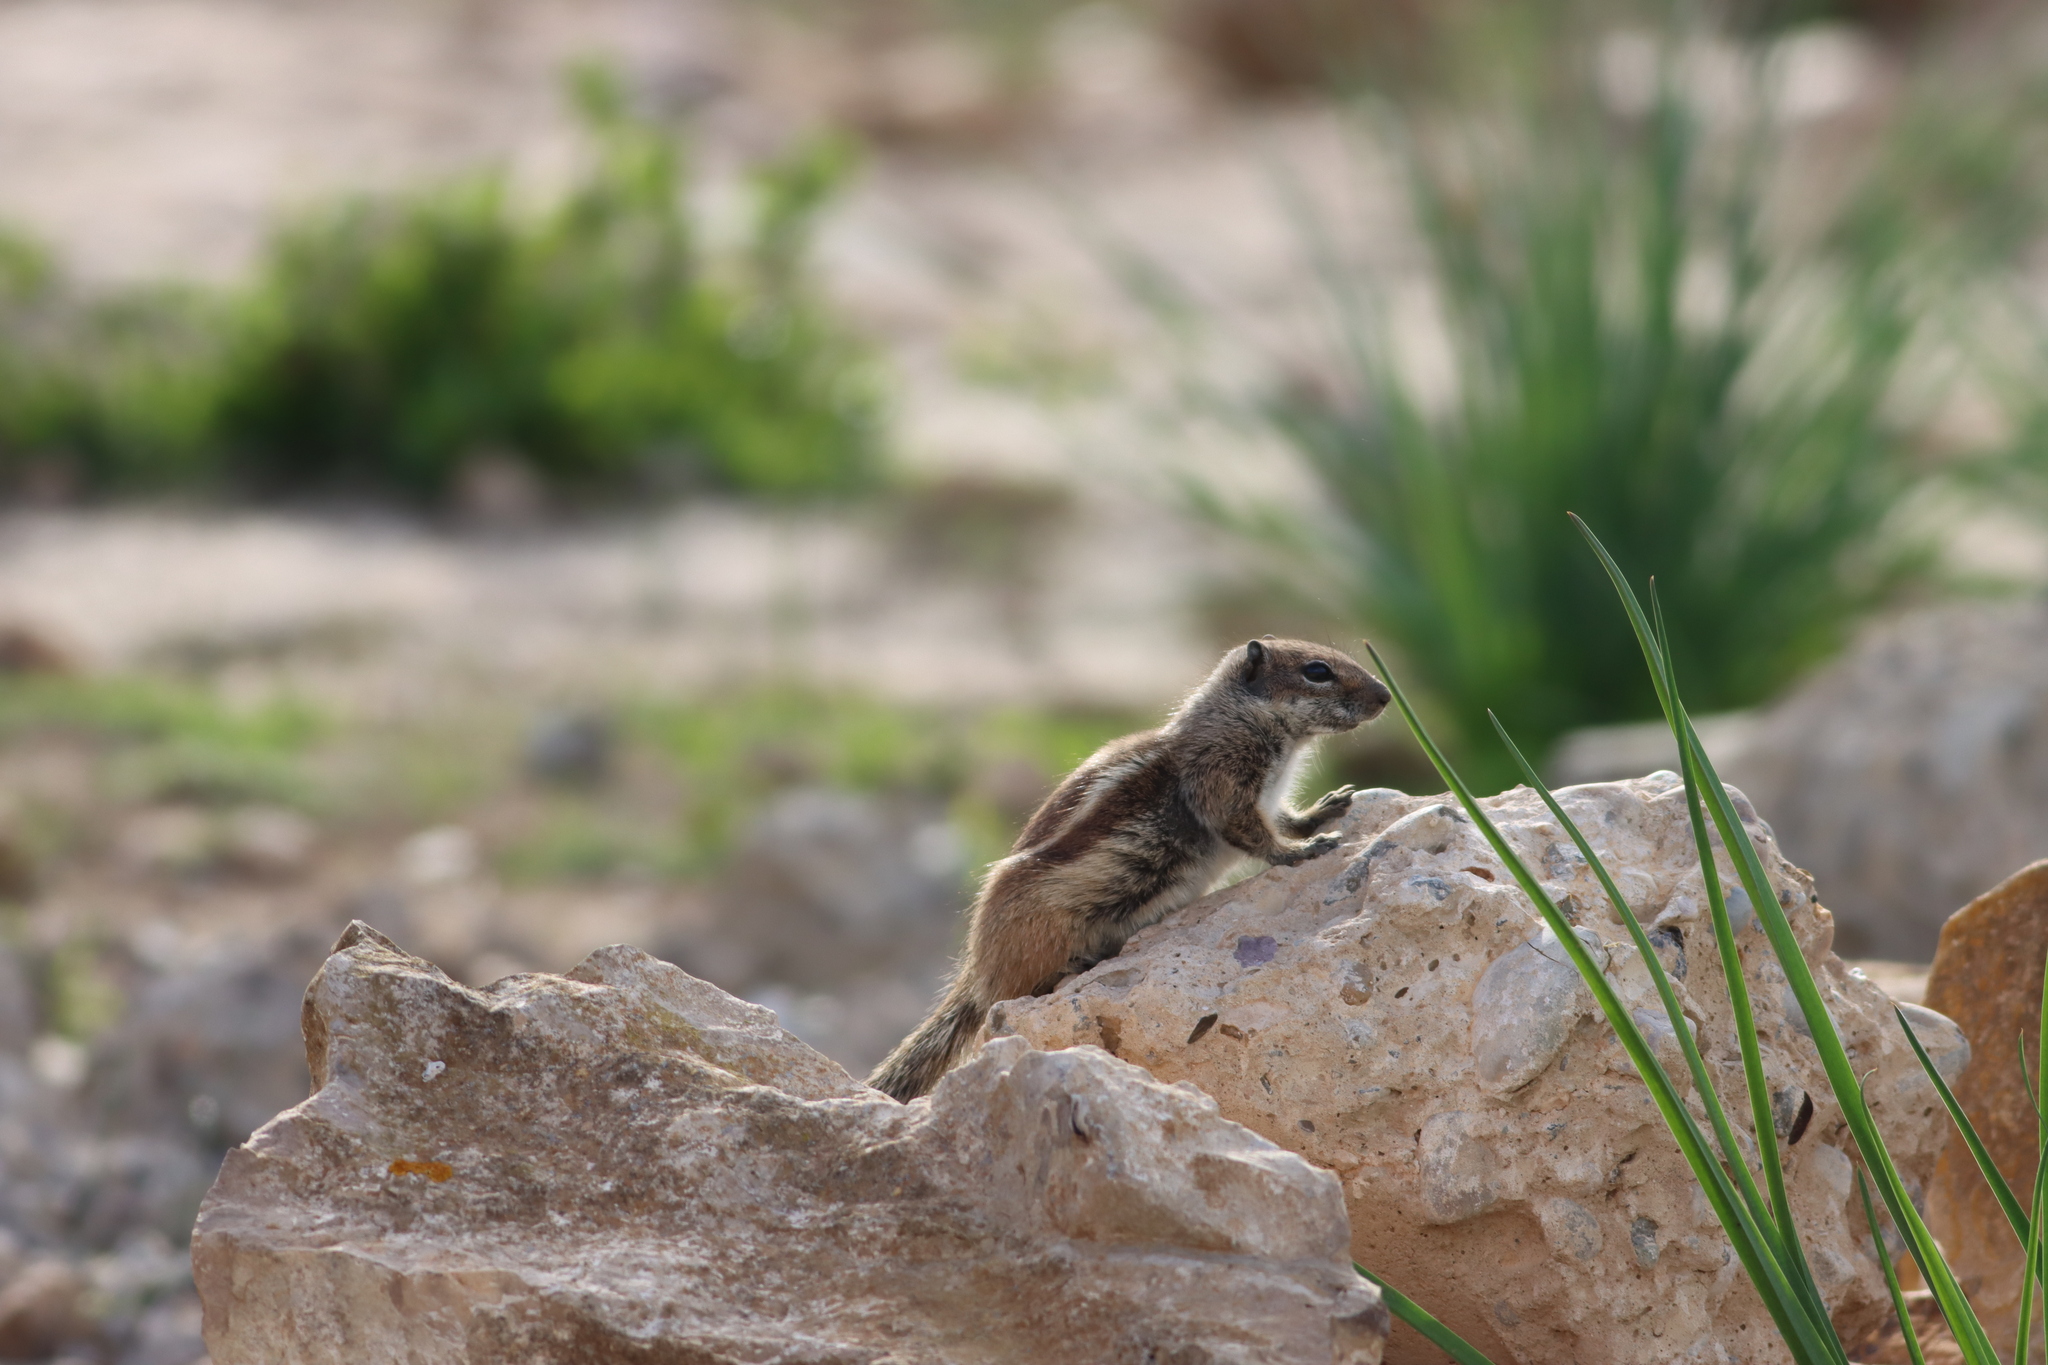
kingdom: Animalia
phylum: Chordata
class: Mammalia
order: Rodentia
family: Sciuridae
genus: Atlantoxerus
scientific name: Atlantoxerus getulus
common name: Barbary ground squirrel
